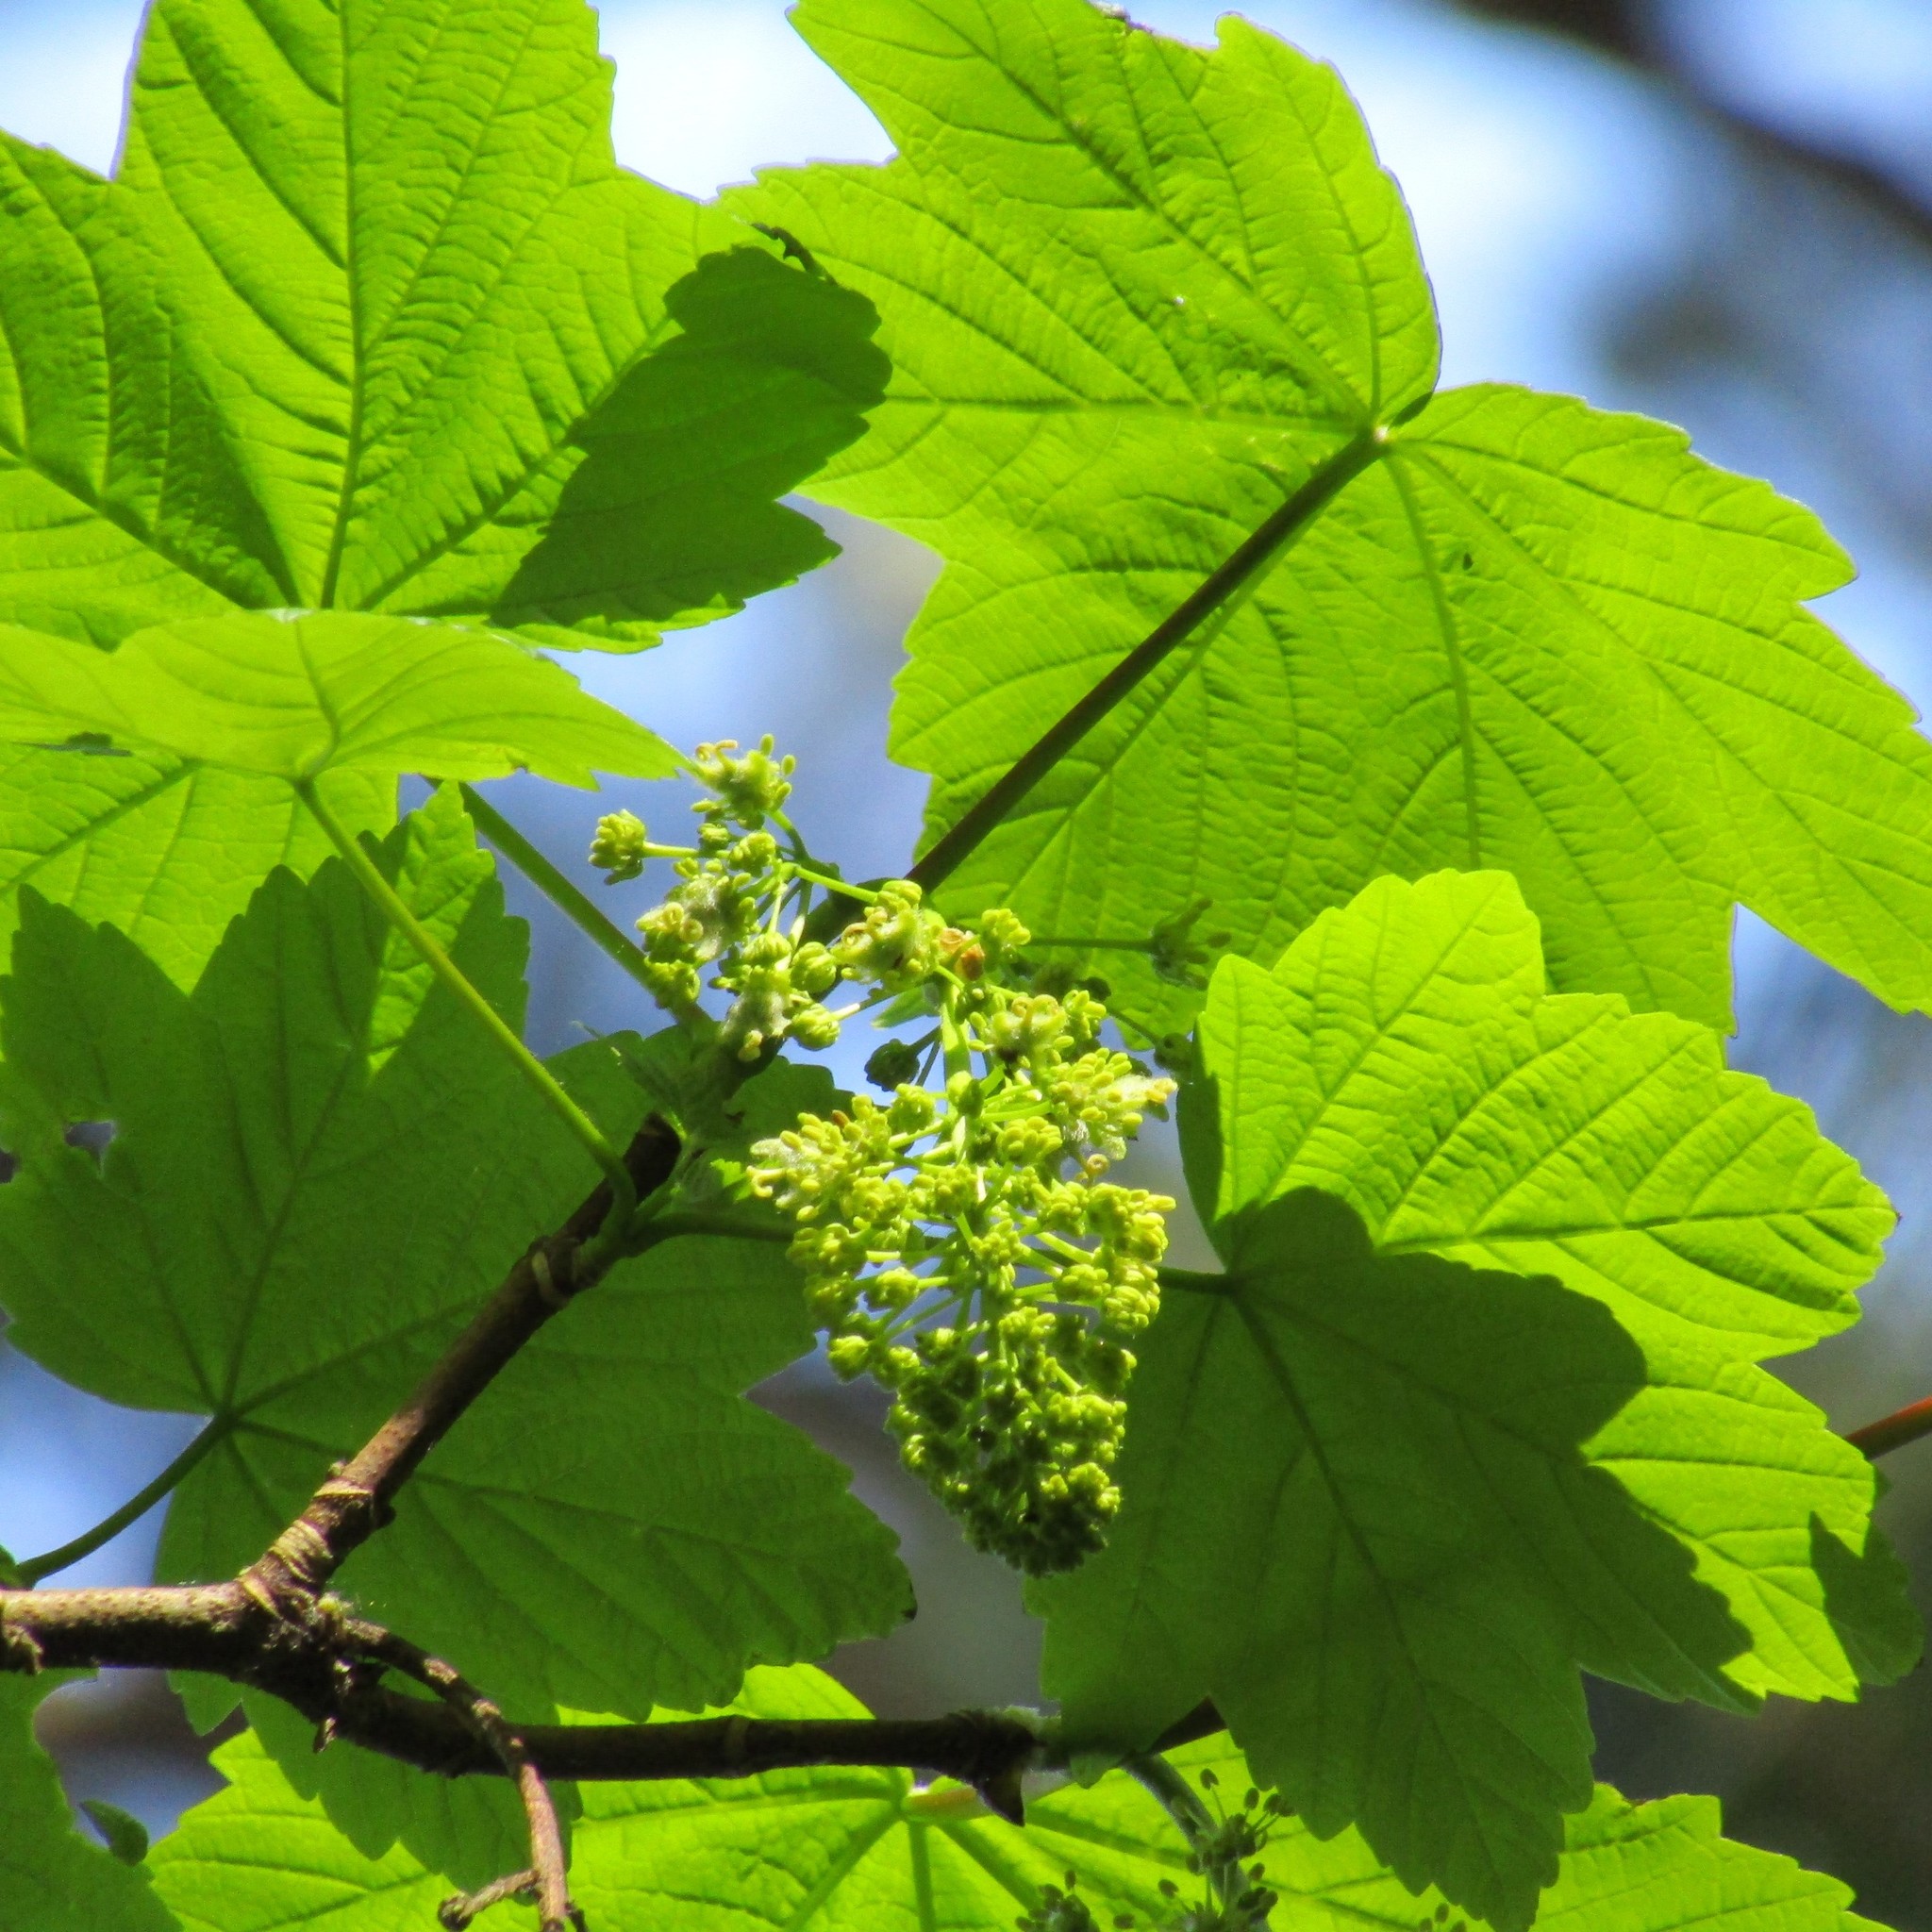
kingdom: Plantae
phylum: Tracheophyta
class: Magnoliopsida
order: Sapindales
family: Sapindaceae
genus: Acer
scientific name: Acer pseudoplatanus
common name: Sycamore
